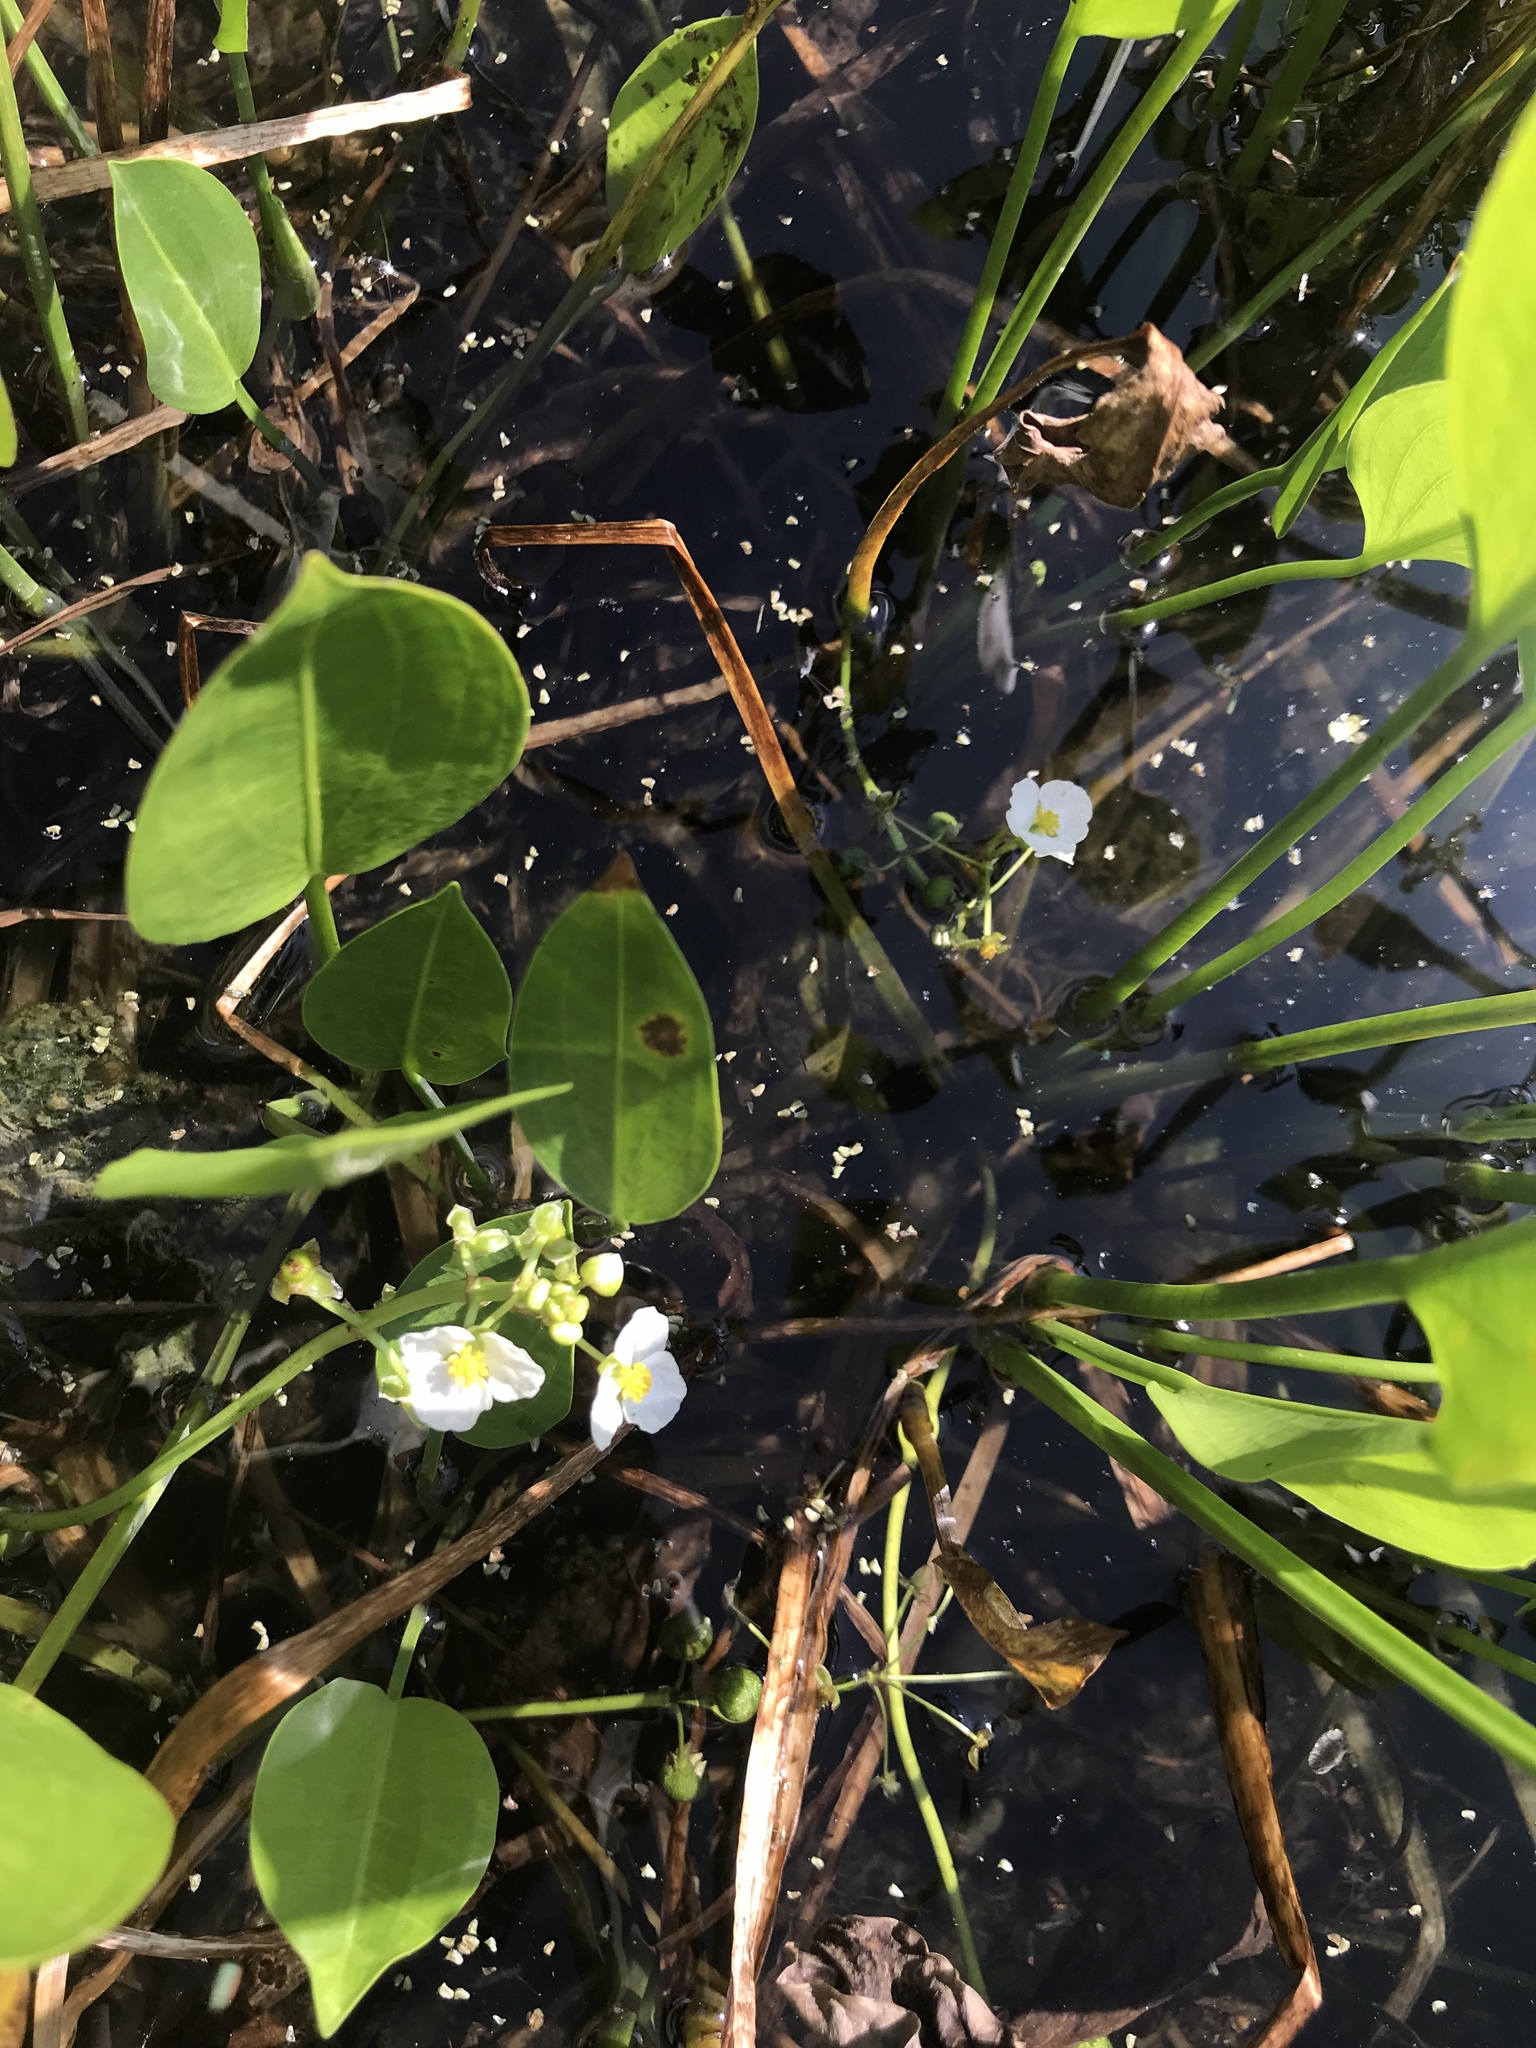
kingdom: Plantae
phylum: Tracheophyta
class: Liliopsida
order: Alismatales
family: Alismataceae
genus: Sagittaria
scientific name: Sagittaria platyphylla
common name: Broad-leaf arrowhead
